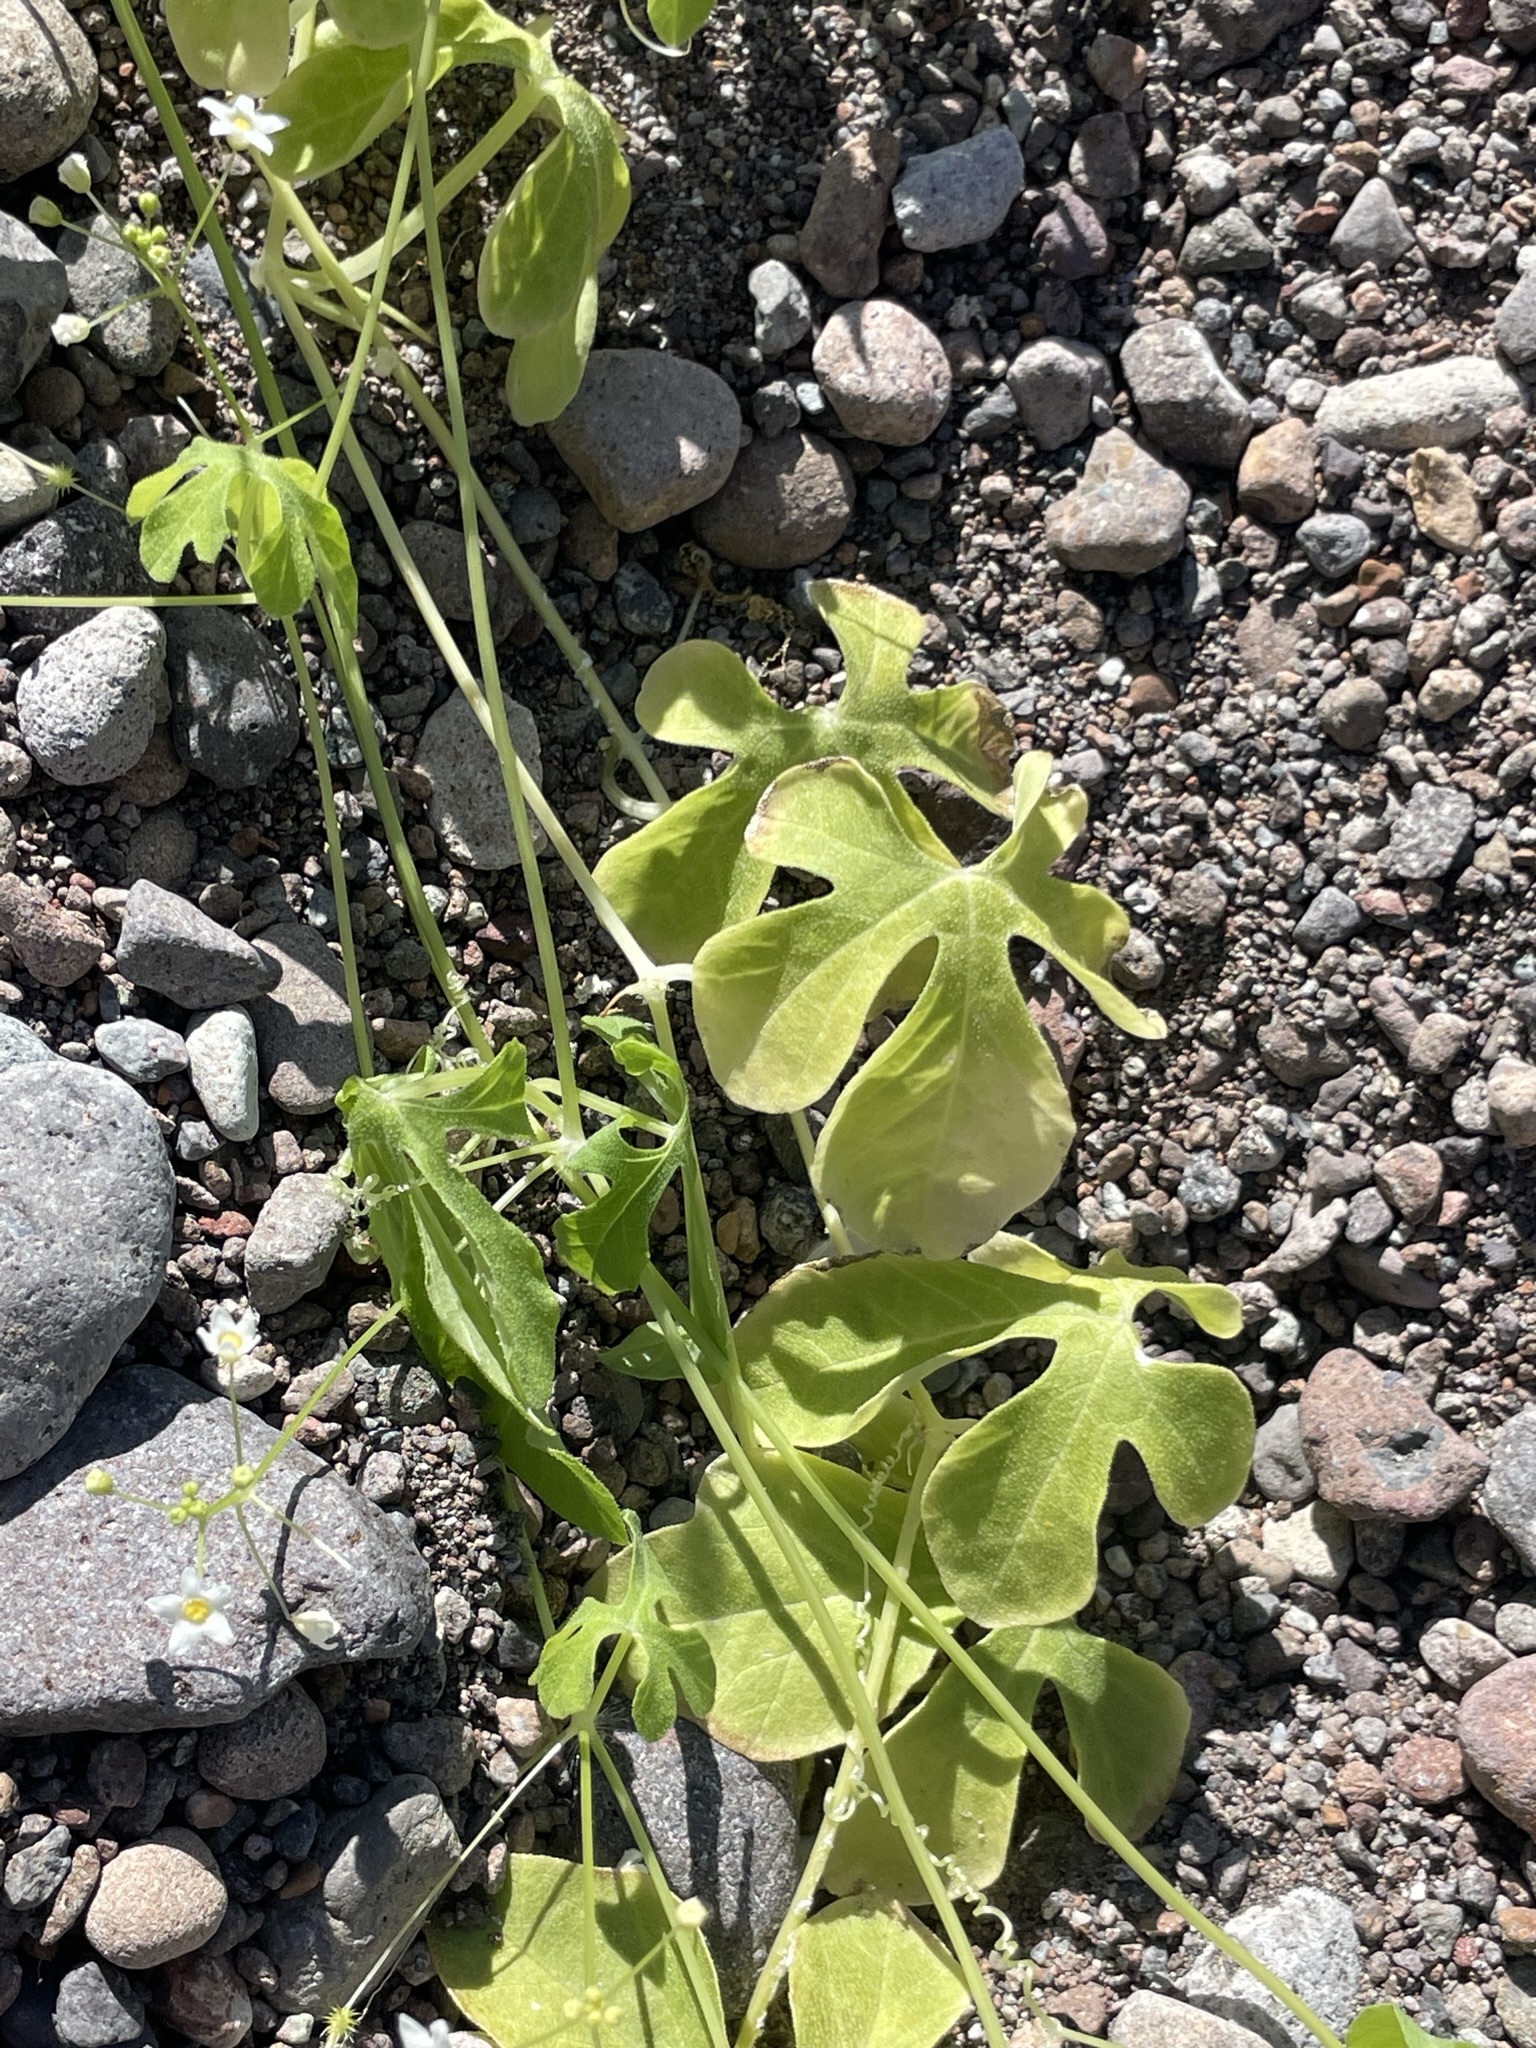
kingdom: Plantae
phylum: Tracheophyta
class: Magnoliopsida
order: Cucurbitales
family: Cucurbitaceae
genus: Echinopepon
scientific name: Echinopepon minimus
